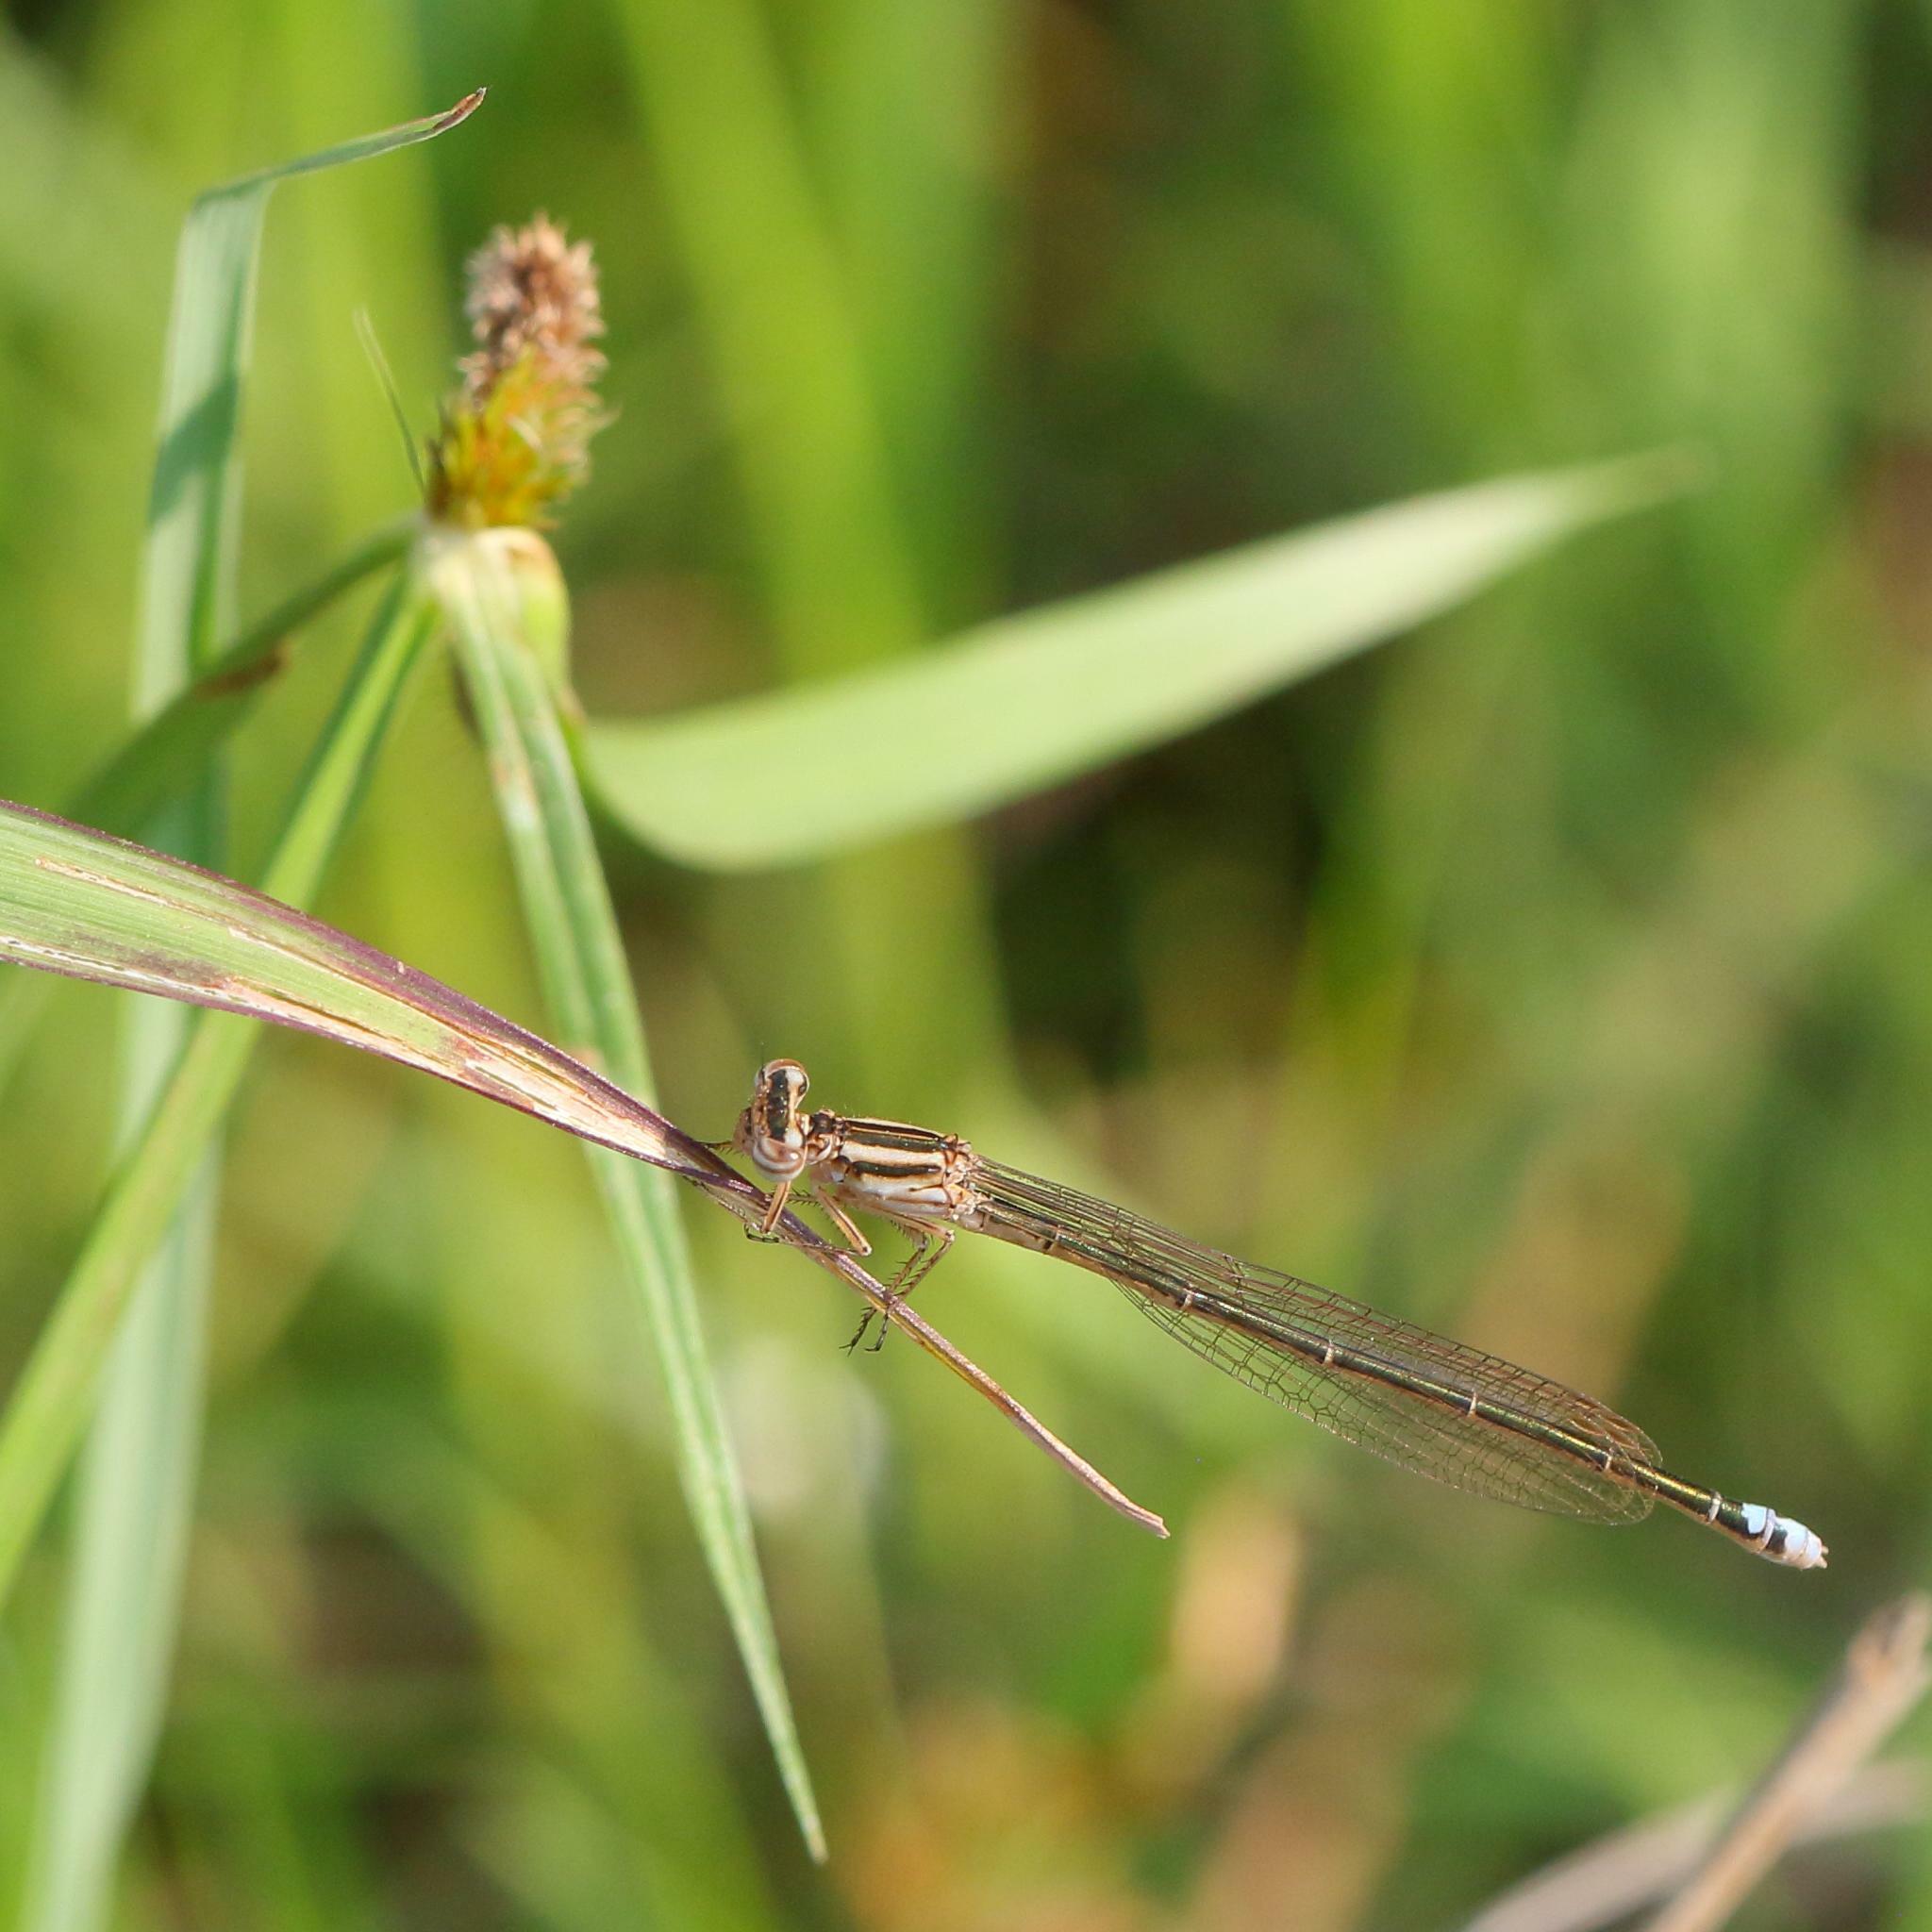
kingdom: Animalia
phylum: Arthropoda
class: Insecta
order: Odonata
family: Coenagrionidae
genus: Pseudagrion
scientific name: Pseudagrion kersteni
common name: Powder-faced sprite
